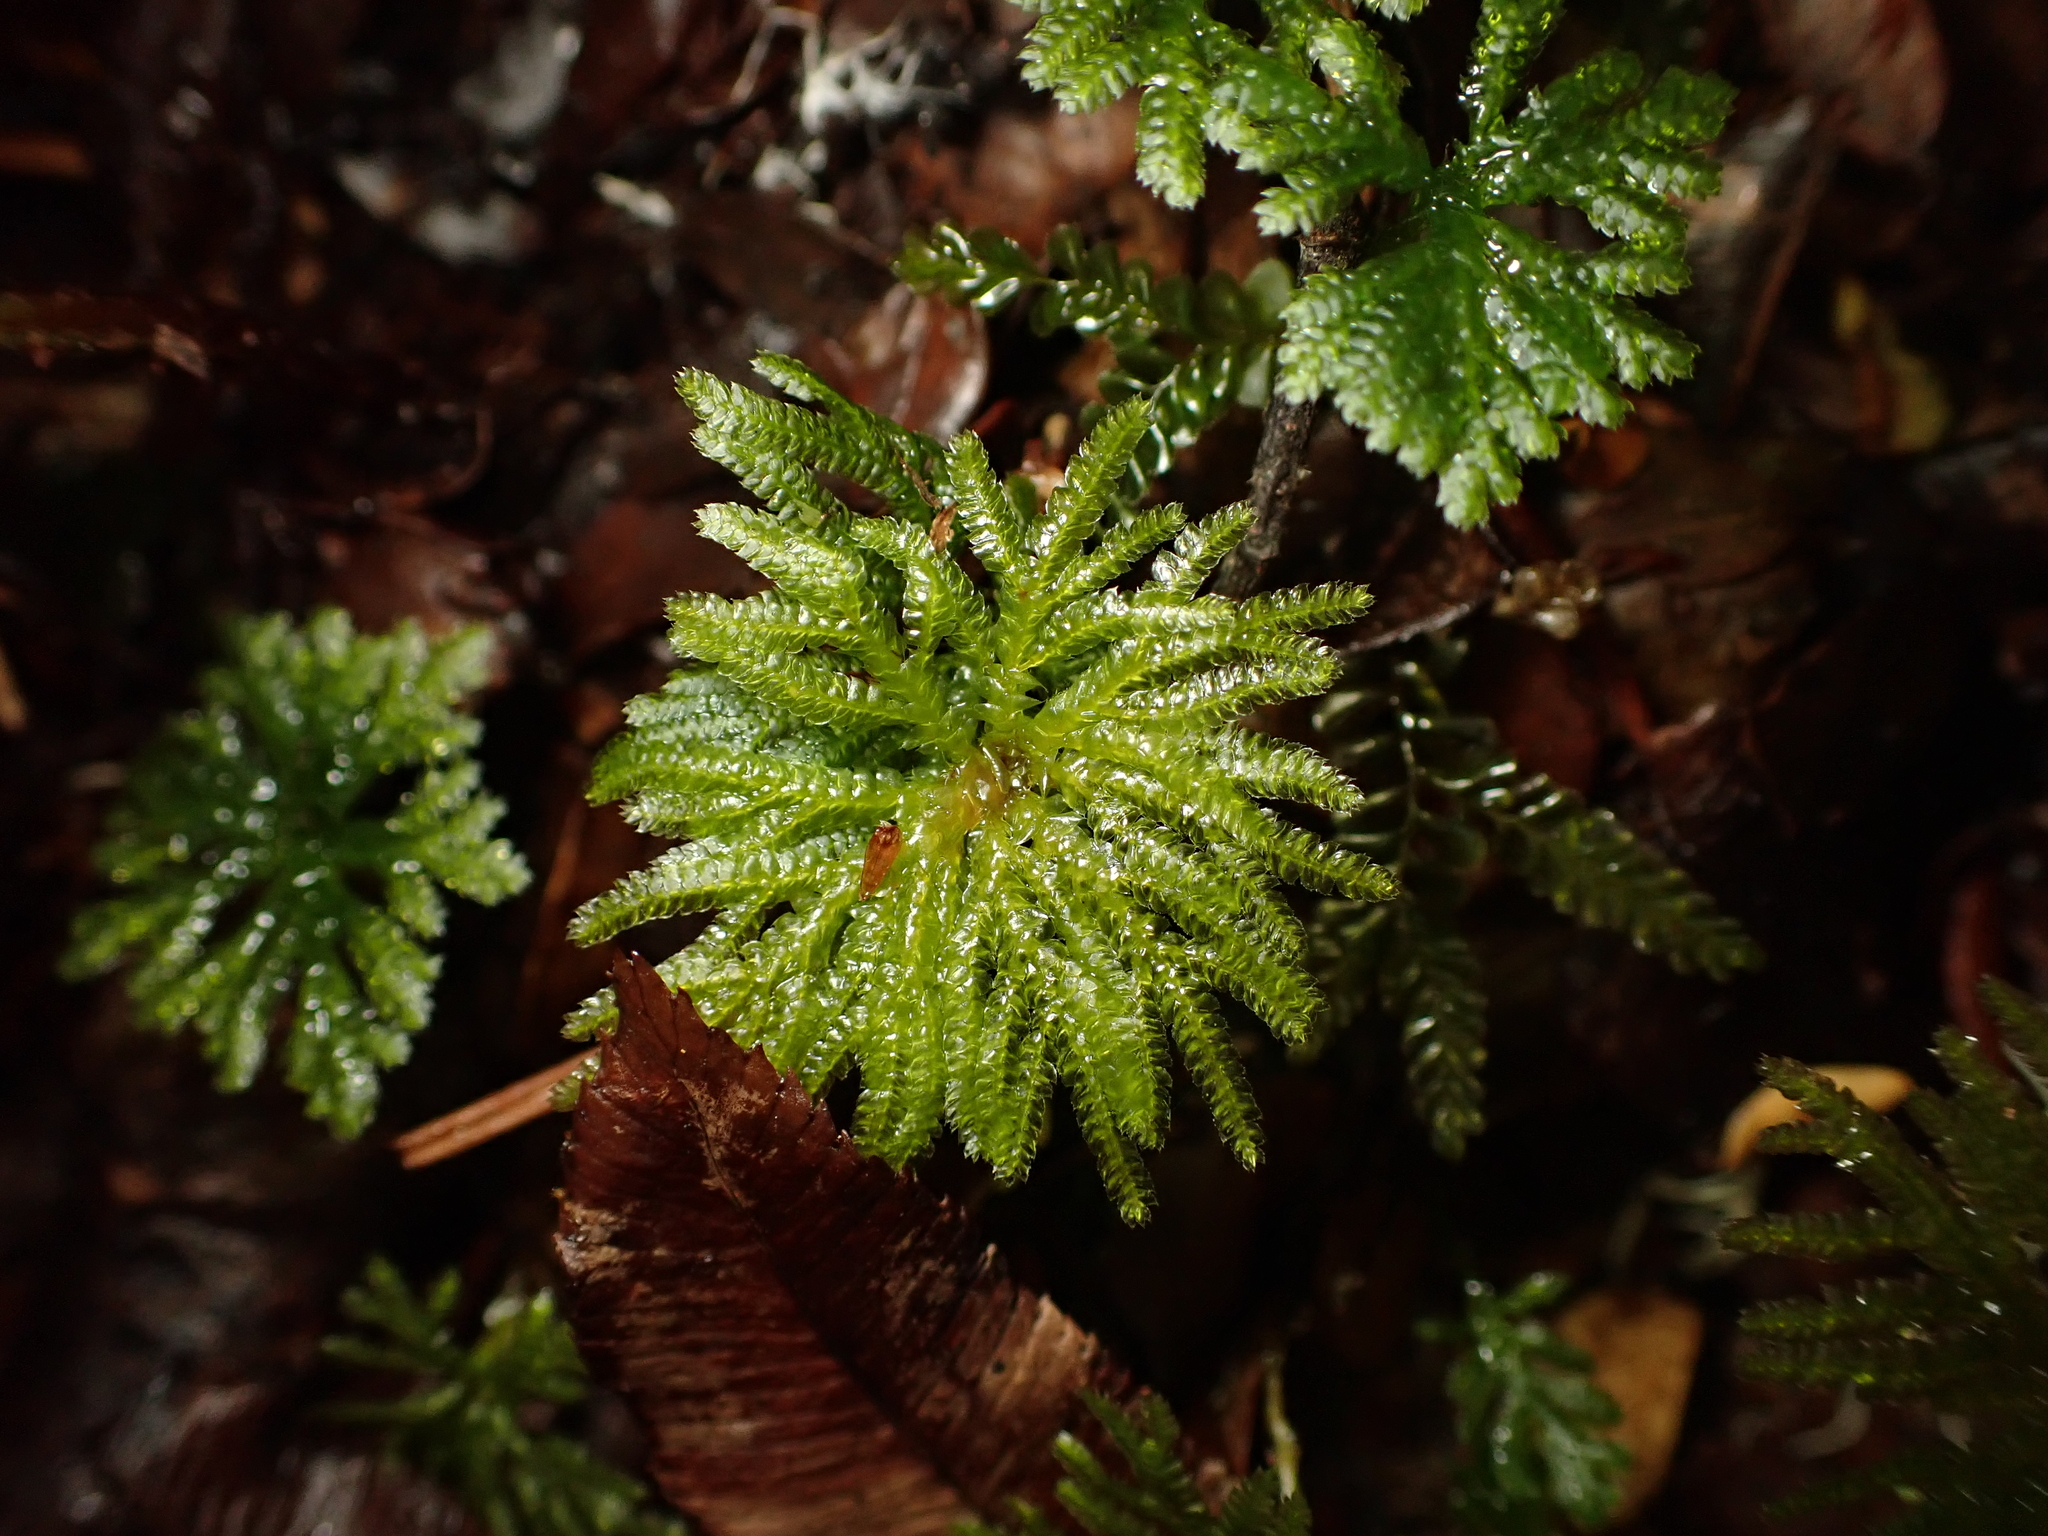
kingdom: Plantae
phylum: Bryophyta
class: Bryopsida
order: Hypopterygiales
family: Hypopterygiaceae
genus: Canalohypopterygium
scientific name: Canalohypopterygium tamariscinum
